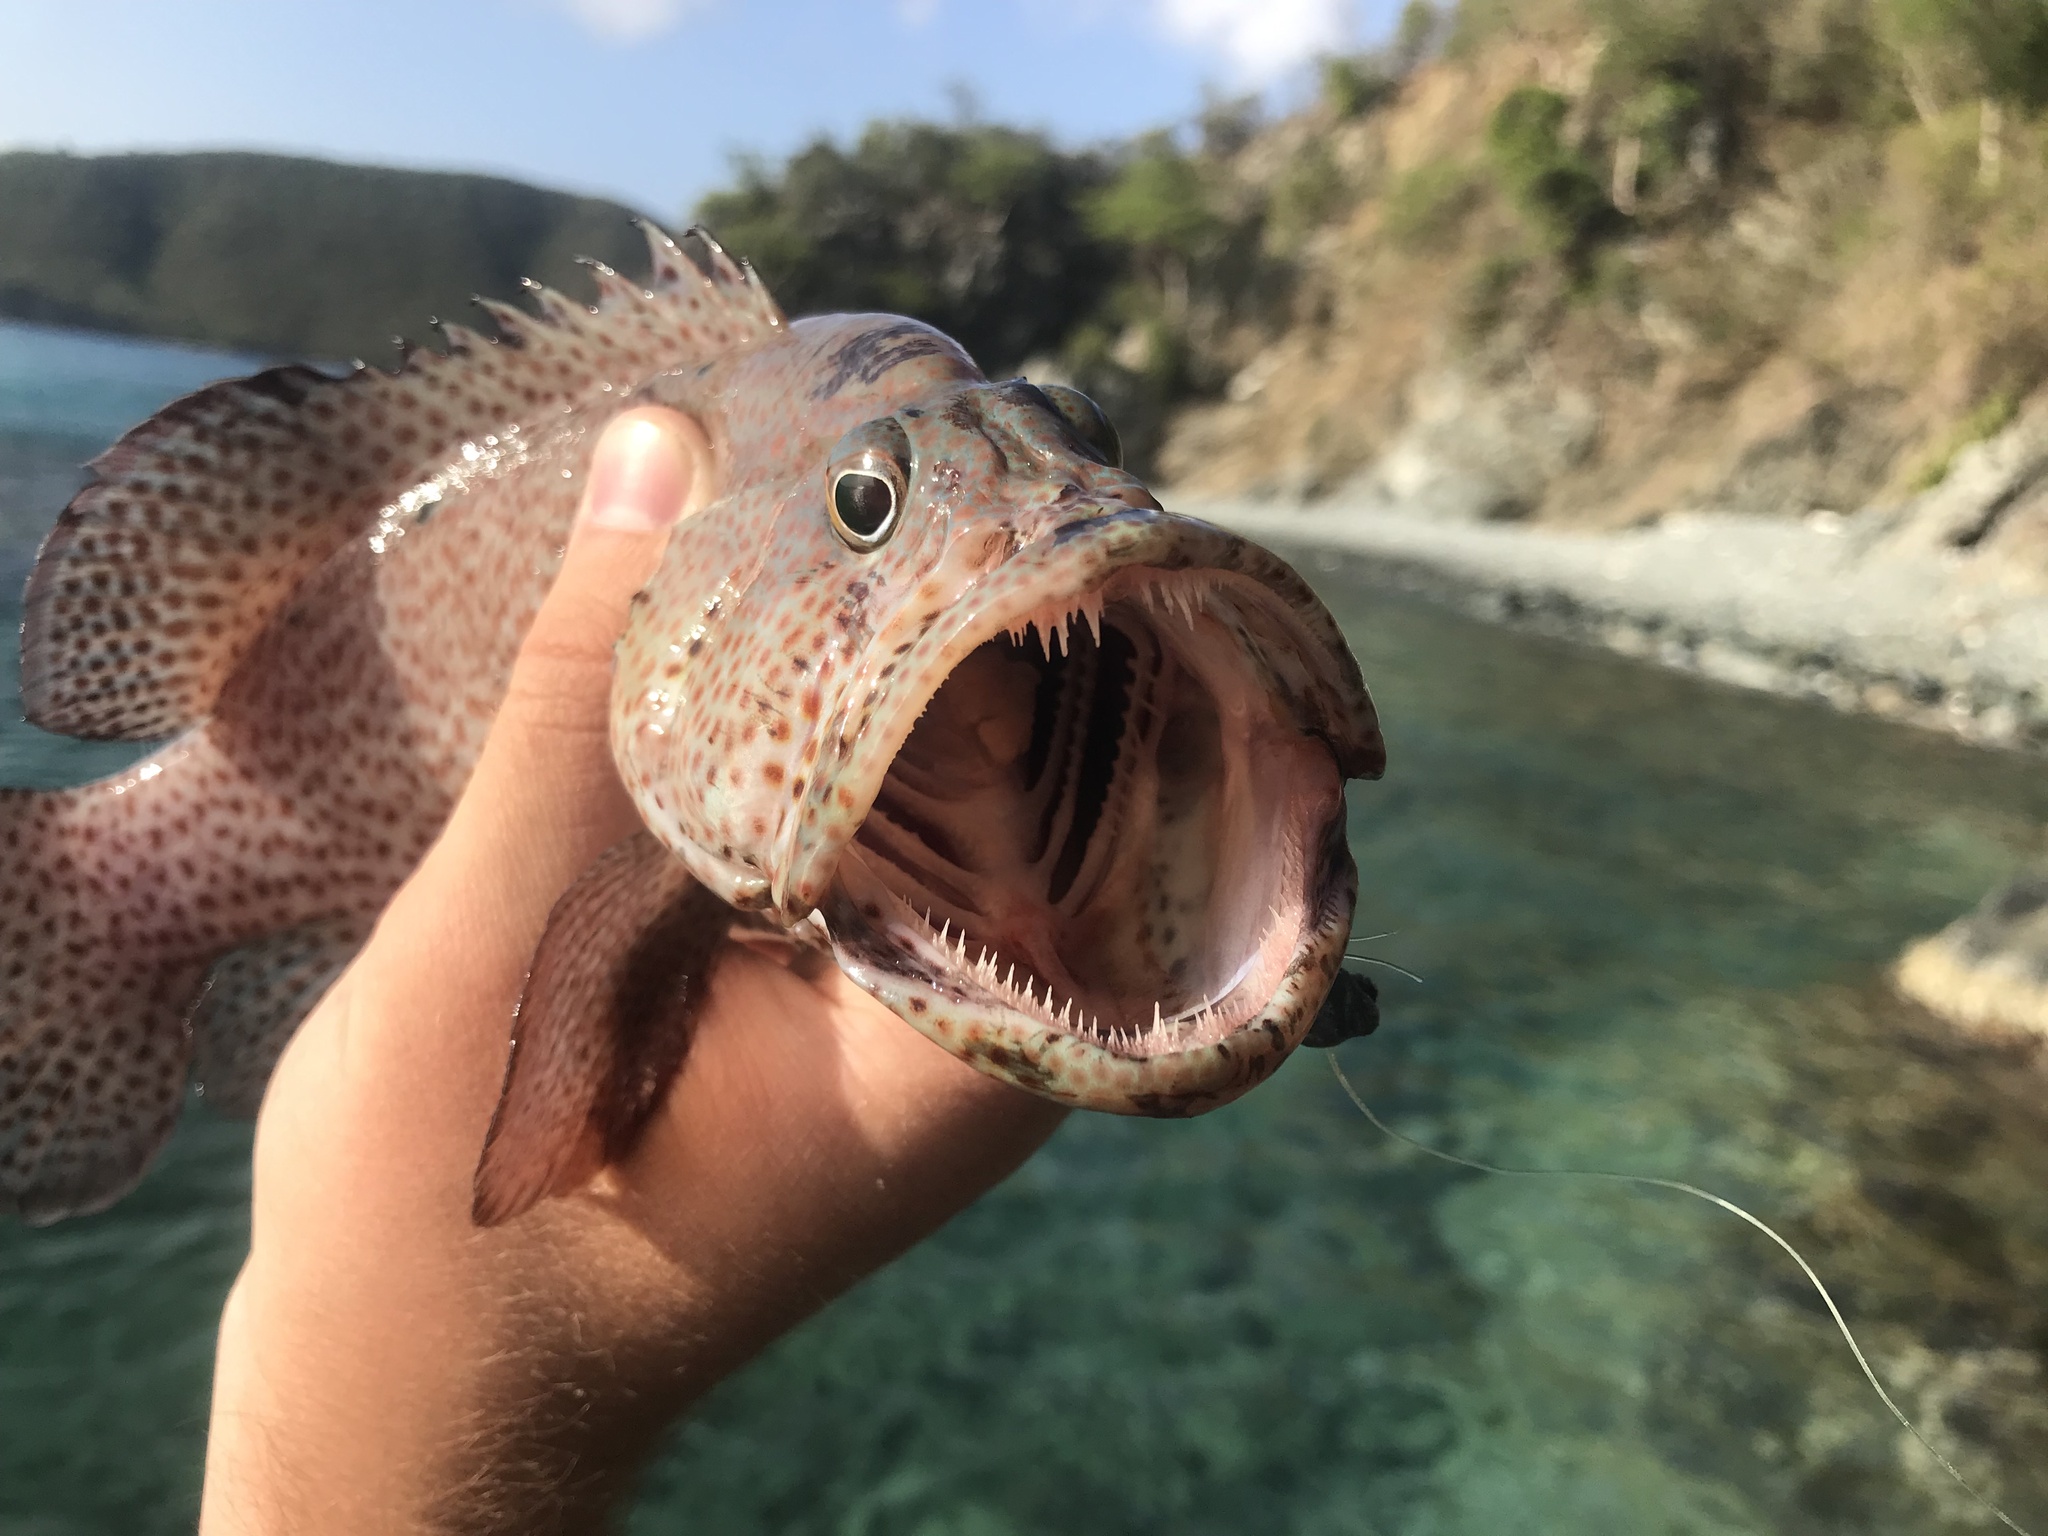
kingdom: Animalia
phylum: Chordata
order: Perciformes
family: Serranidae
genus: Cephalopholis
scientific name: Cephalopholis cruentata
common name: Graysby
